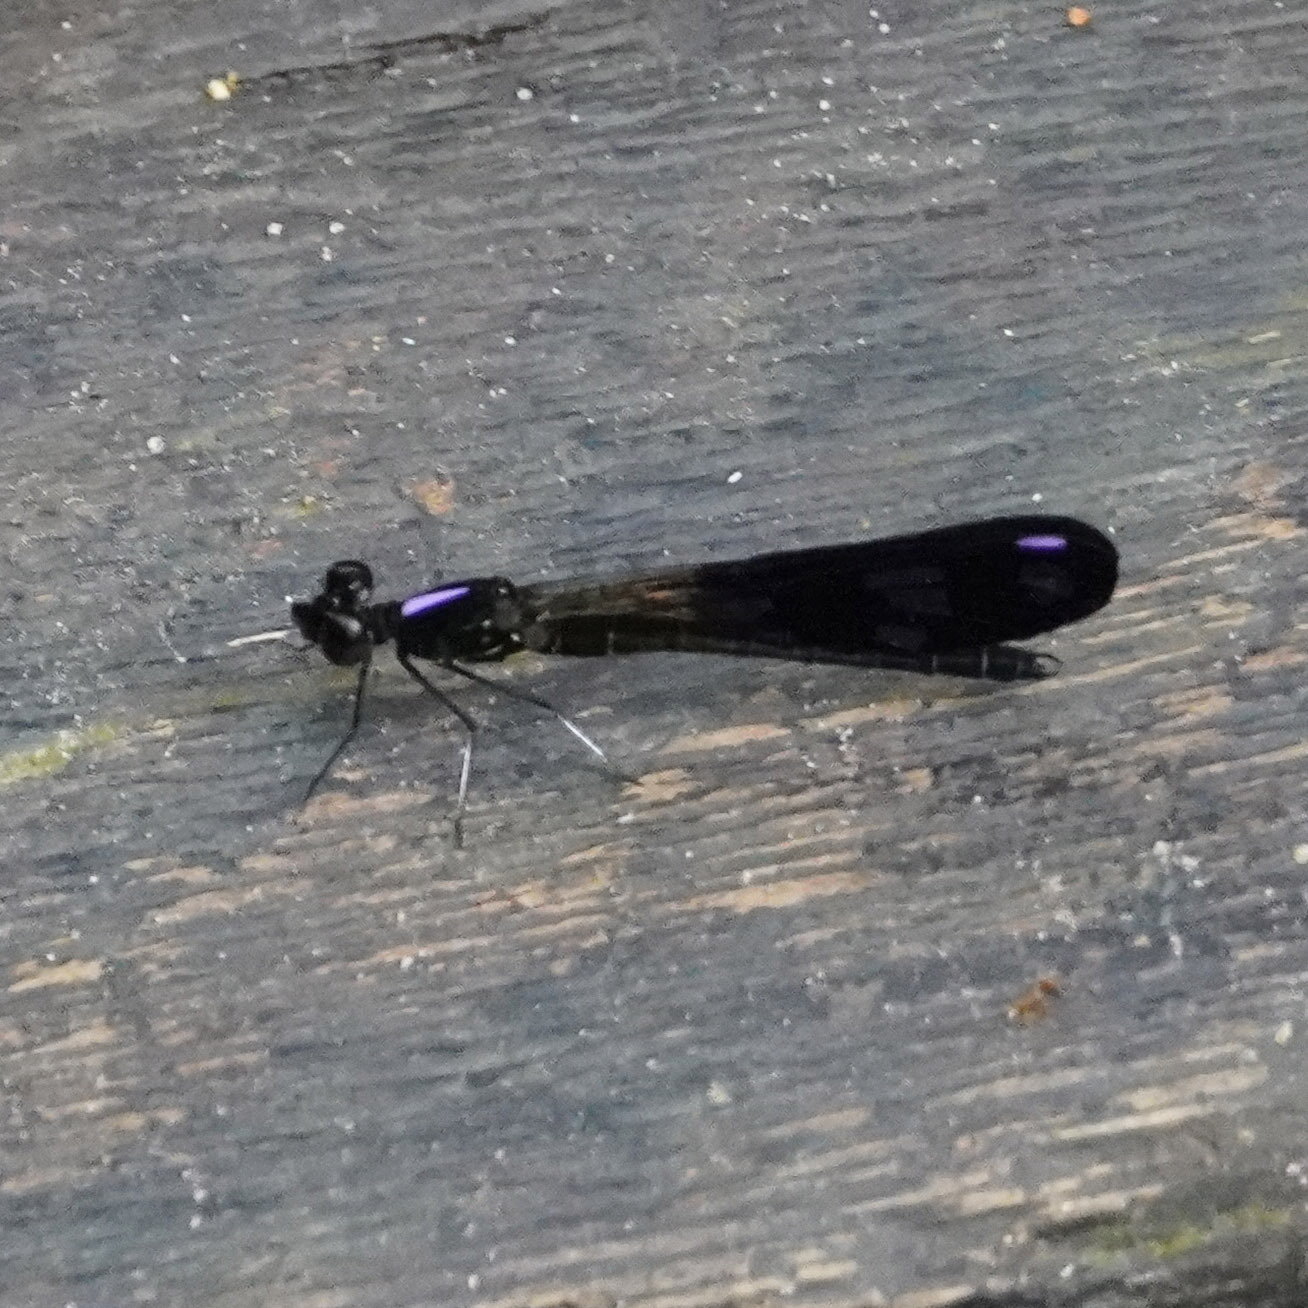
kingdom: Animalia
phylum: Arthropoda
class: Insecta
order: Odonata
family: Chlorocyphidae
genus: Aristocypha
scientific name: Aristocypha fenestrella
